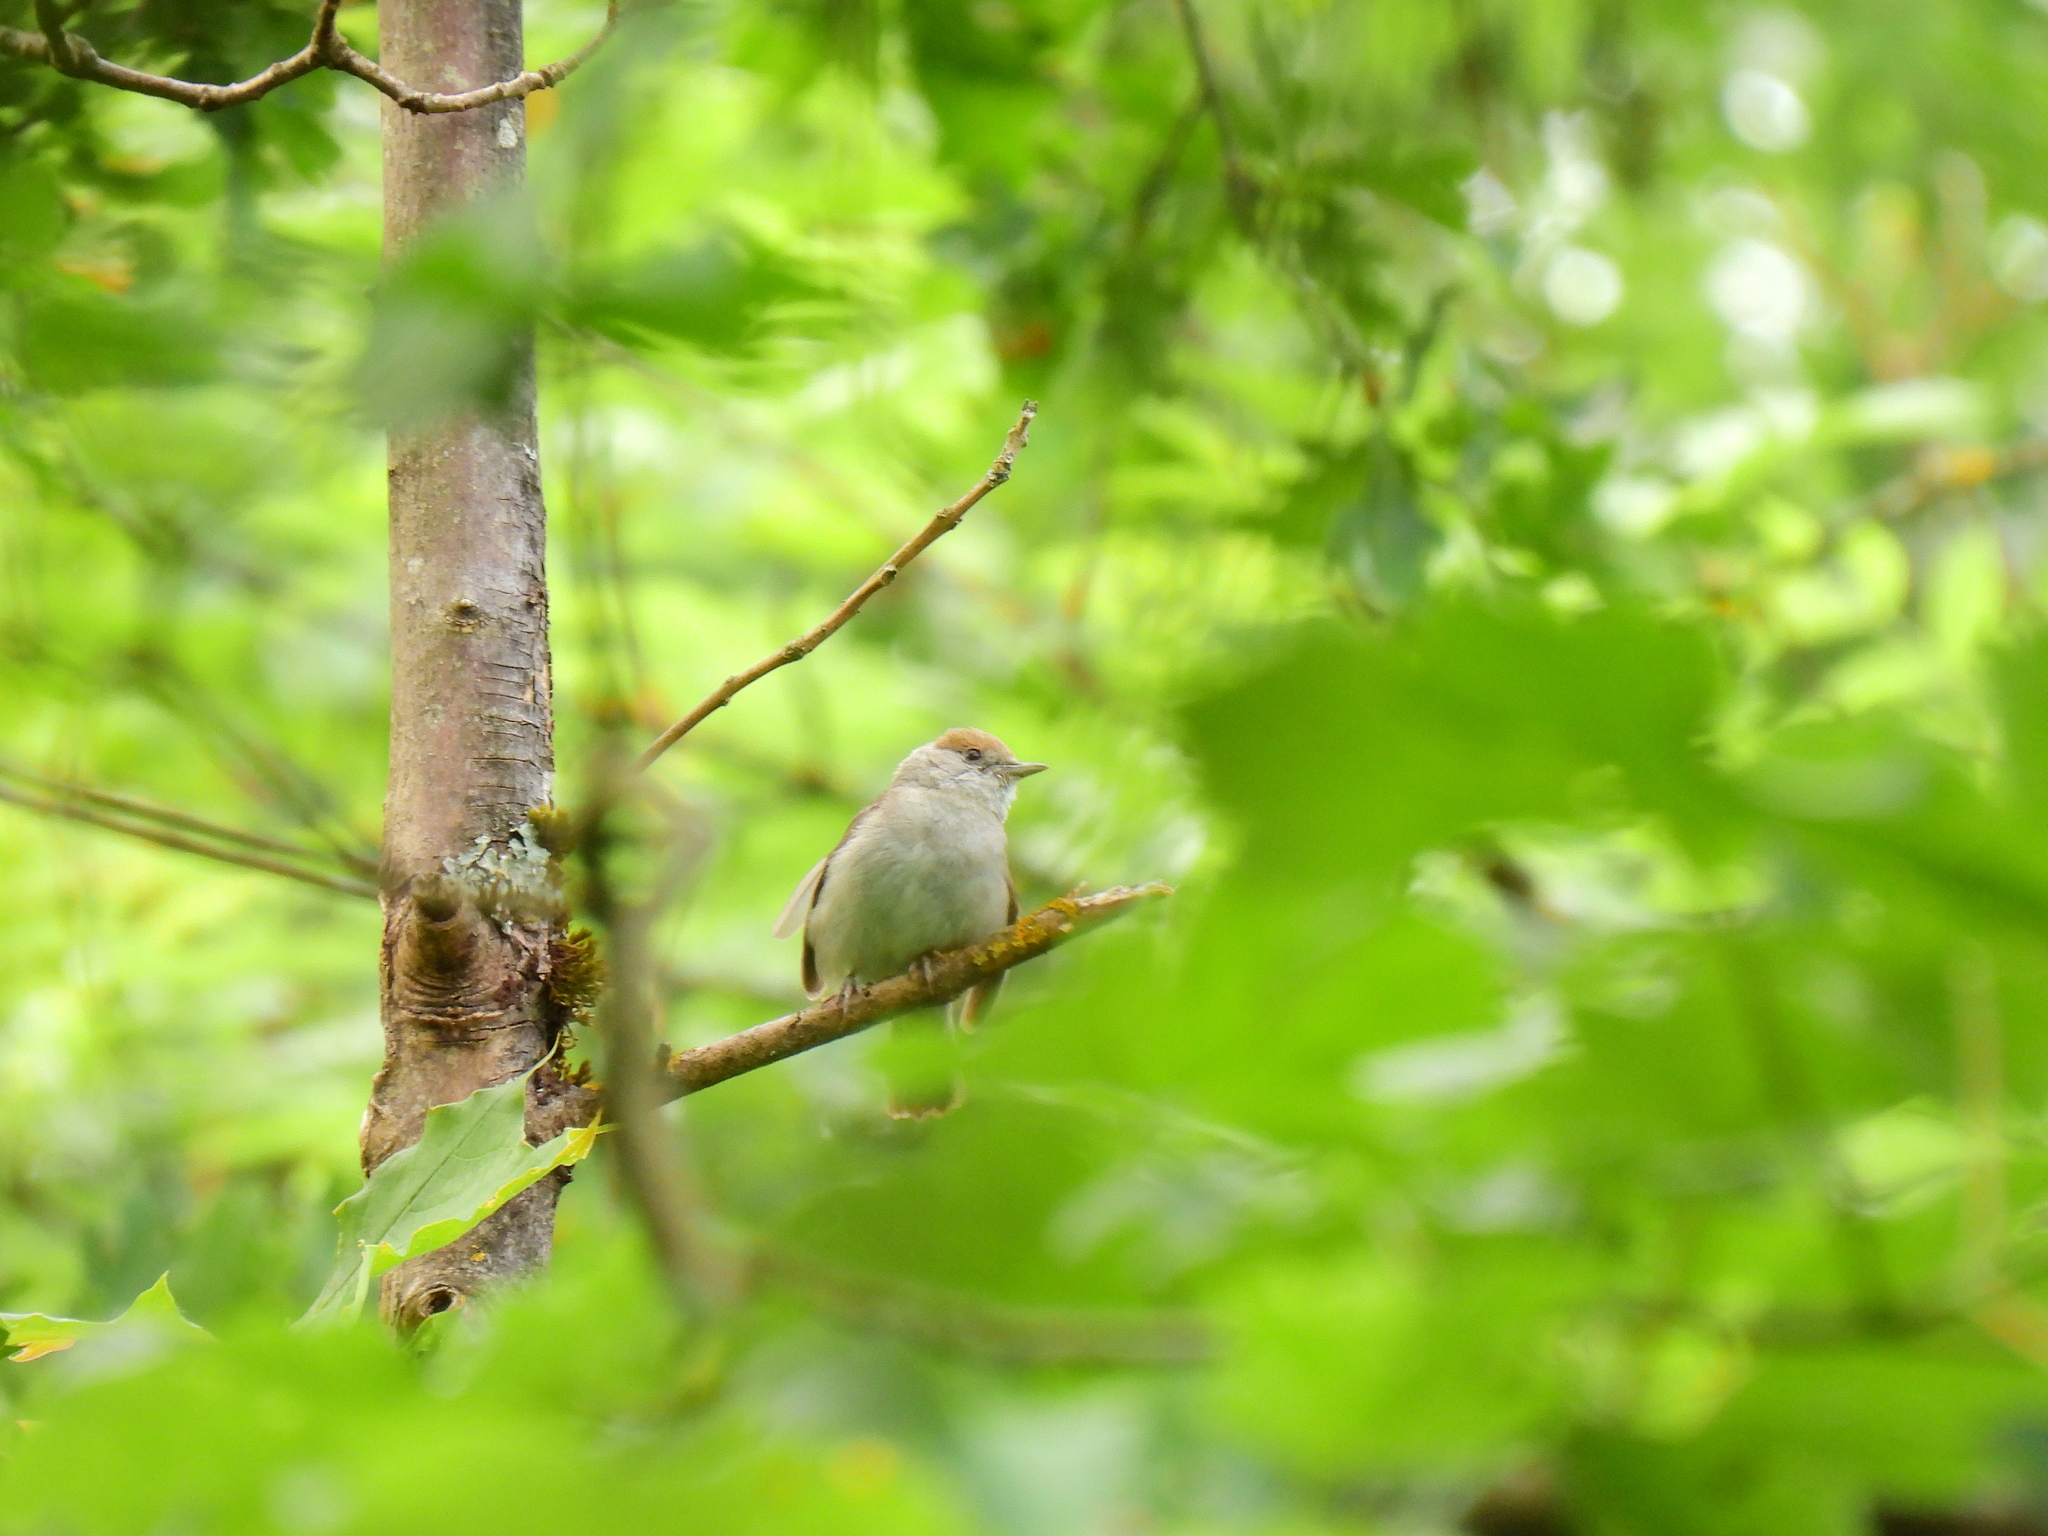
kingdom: Animalia
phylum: Chordata
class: Aves
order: Passeriformes
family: Sylviidae
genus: Sylvia
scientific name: Sylvia atricapilla
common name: Eurasian blackcap
